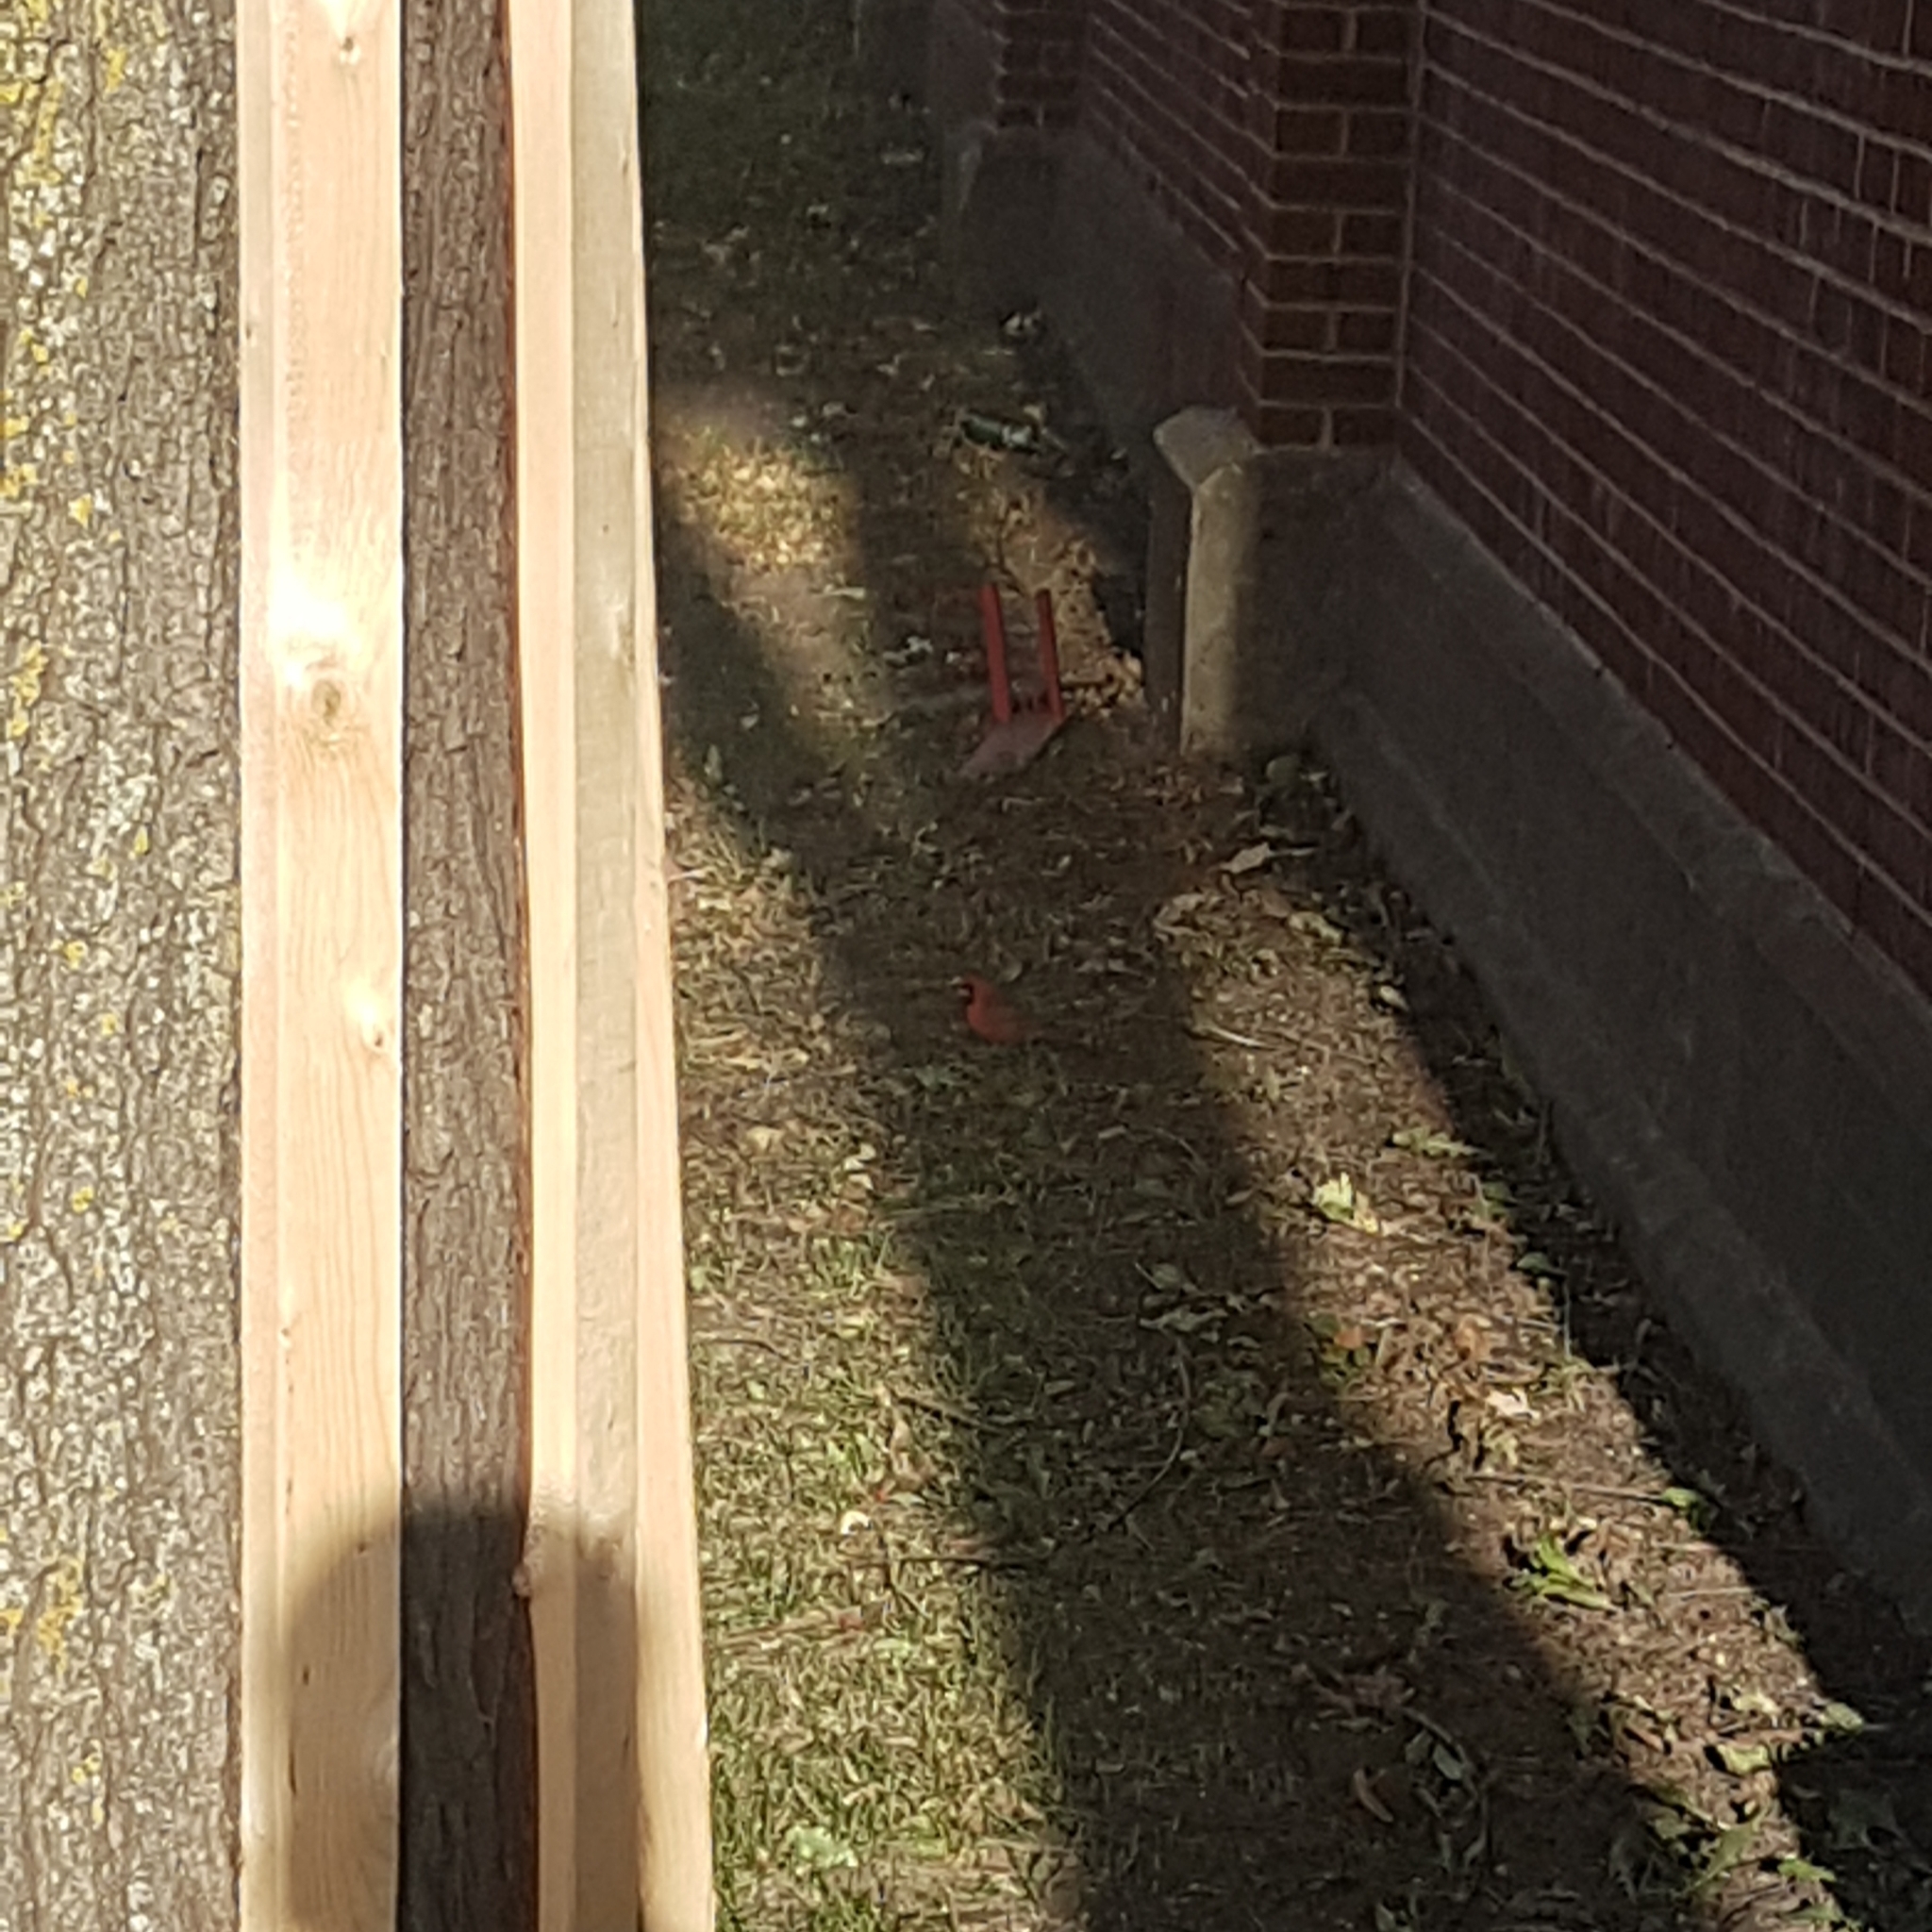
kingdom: Animalia
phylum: Chordata
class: Aves
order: Passeriformes
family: Cardinalidae
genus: Cardinalis
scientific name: Cardinalis cardinalis
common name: Northern cardinal
